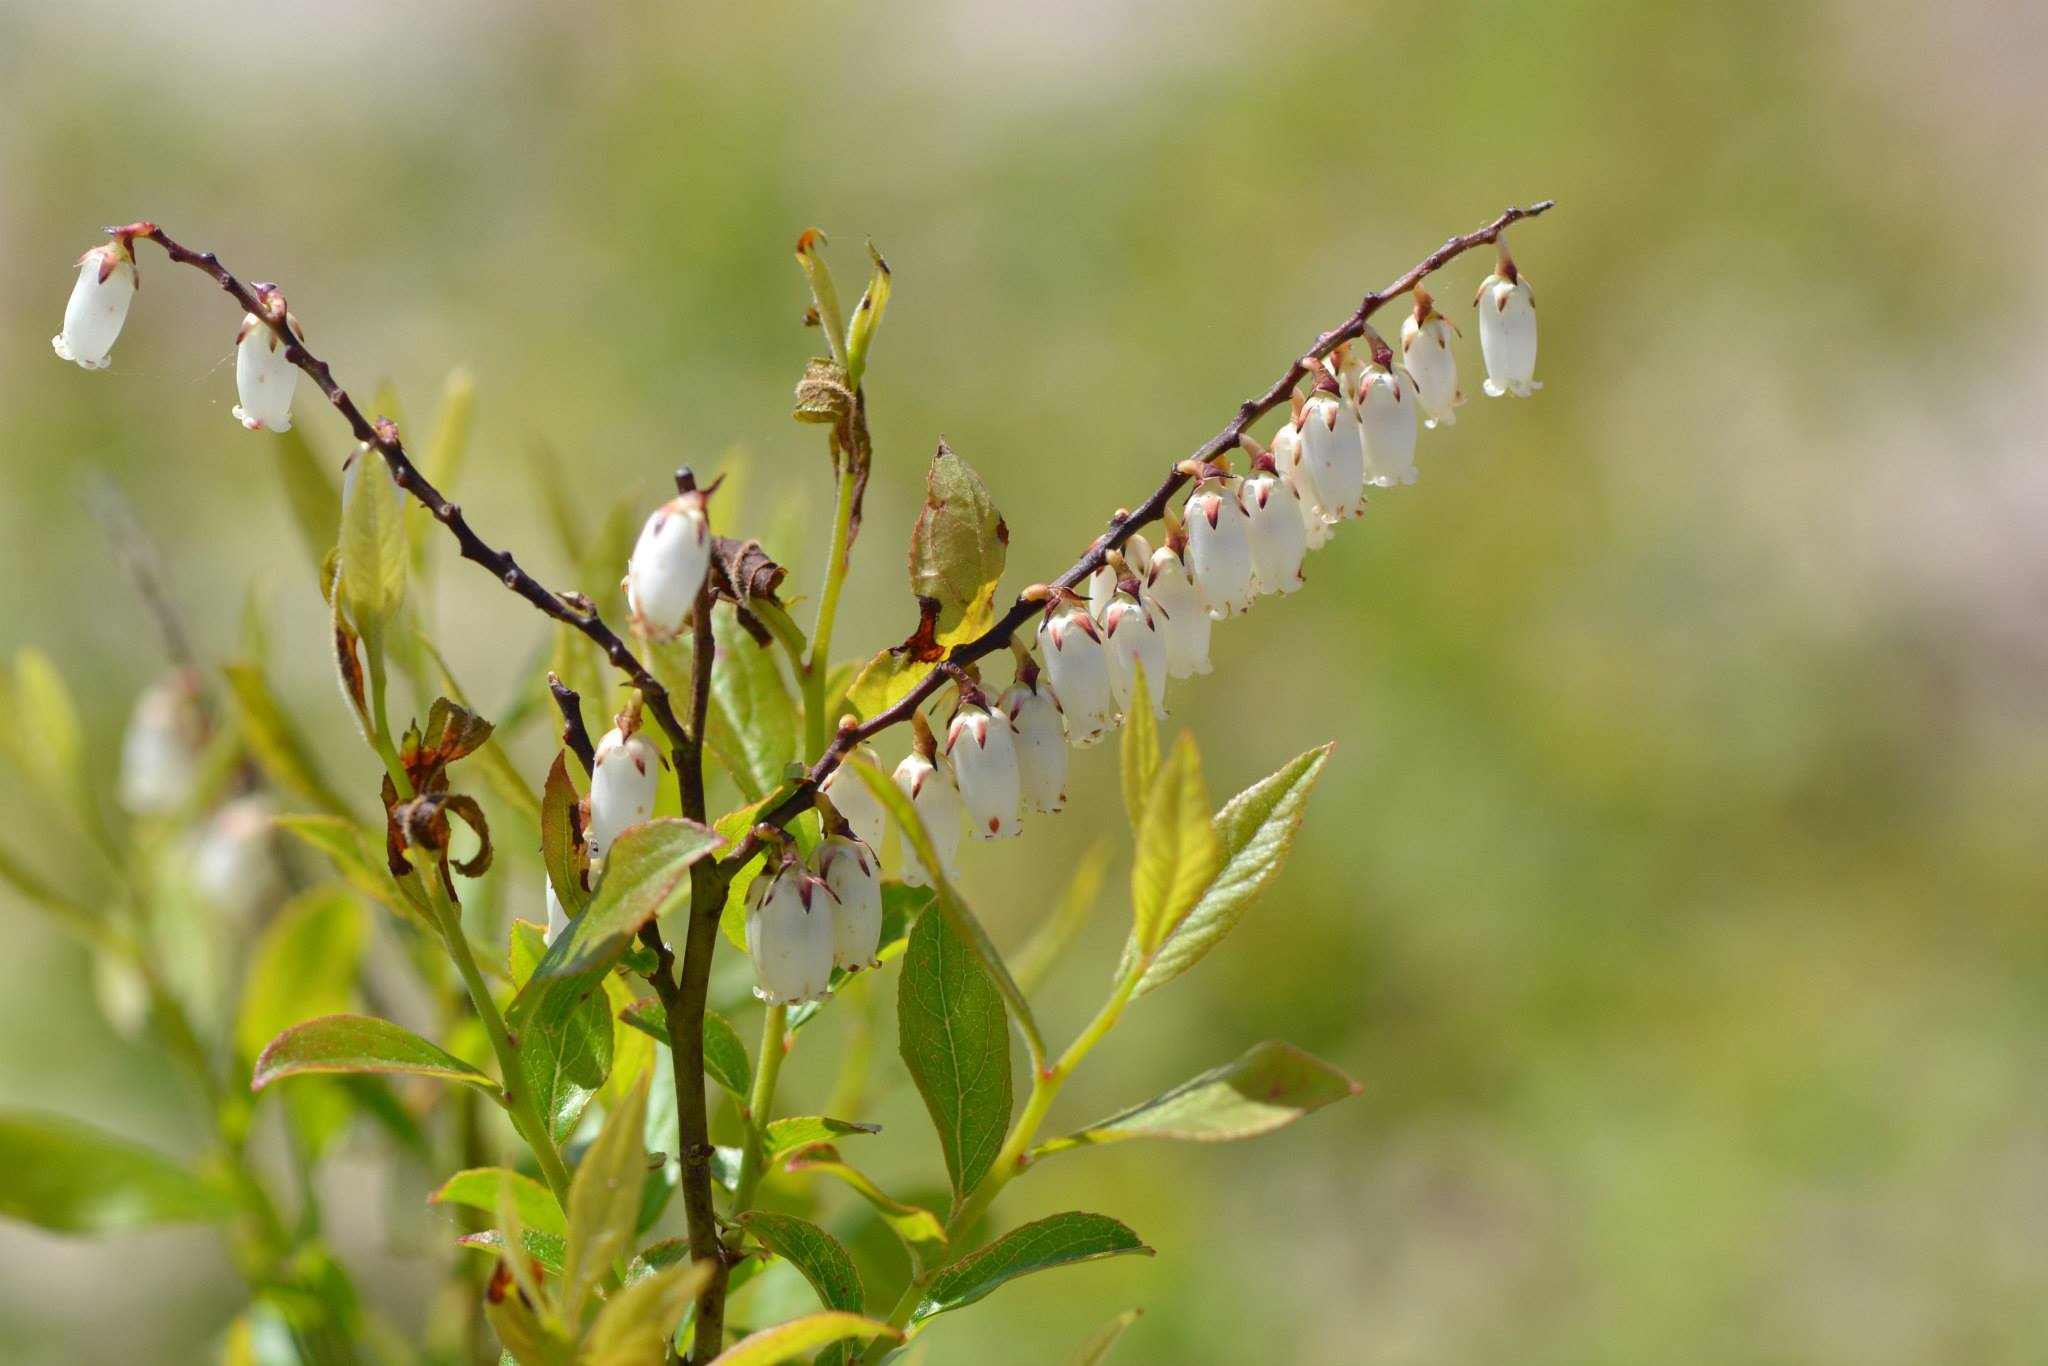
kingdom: Plantae
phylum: Tracheophyta
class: Magnoliopsida
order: Ericales
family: Ericaceae
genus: Eubotrys
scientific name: Eubotrys racemosa
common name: Fetterbush
